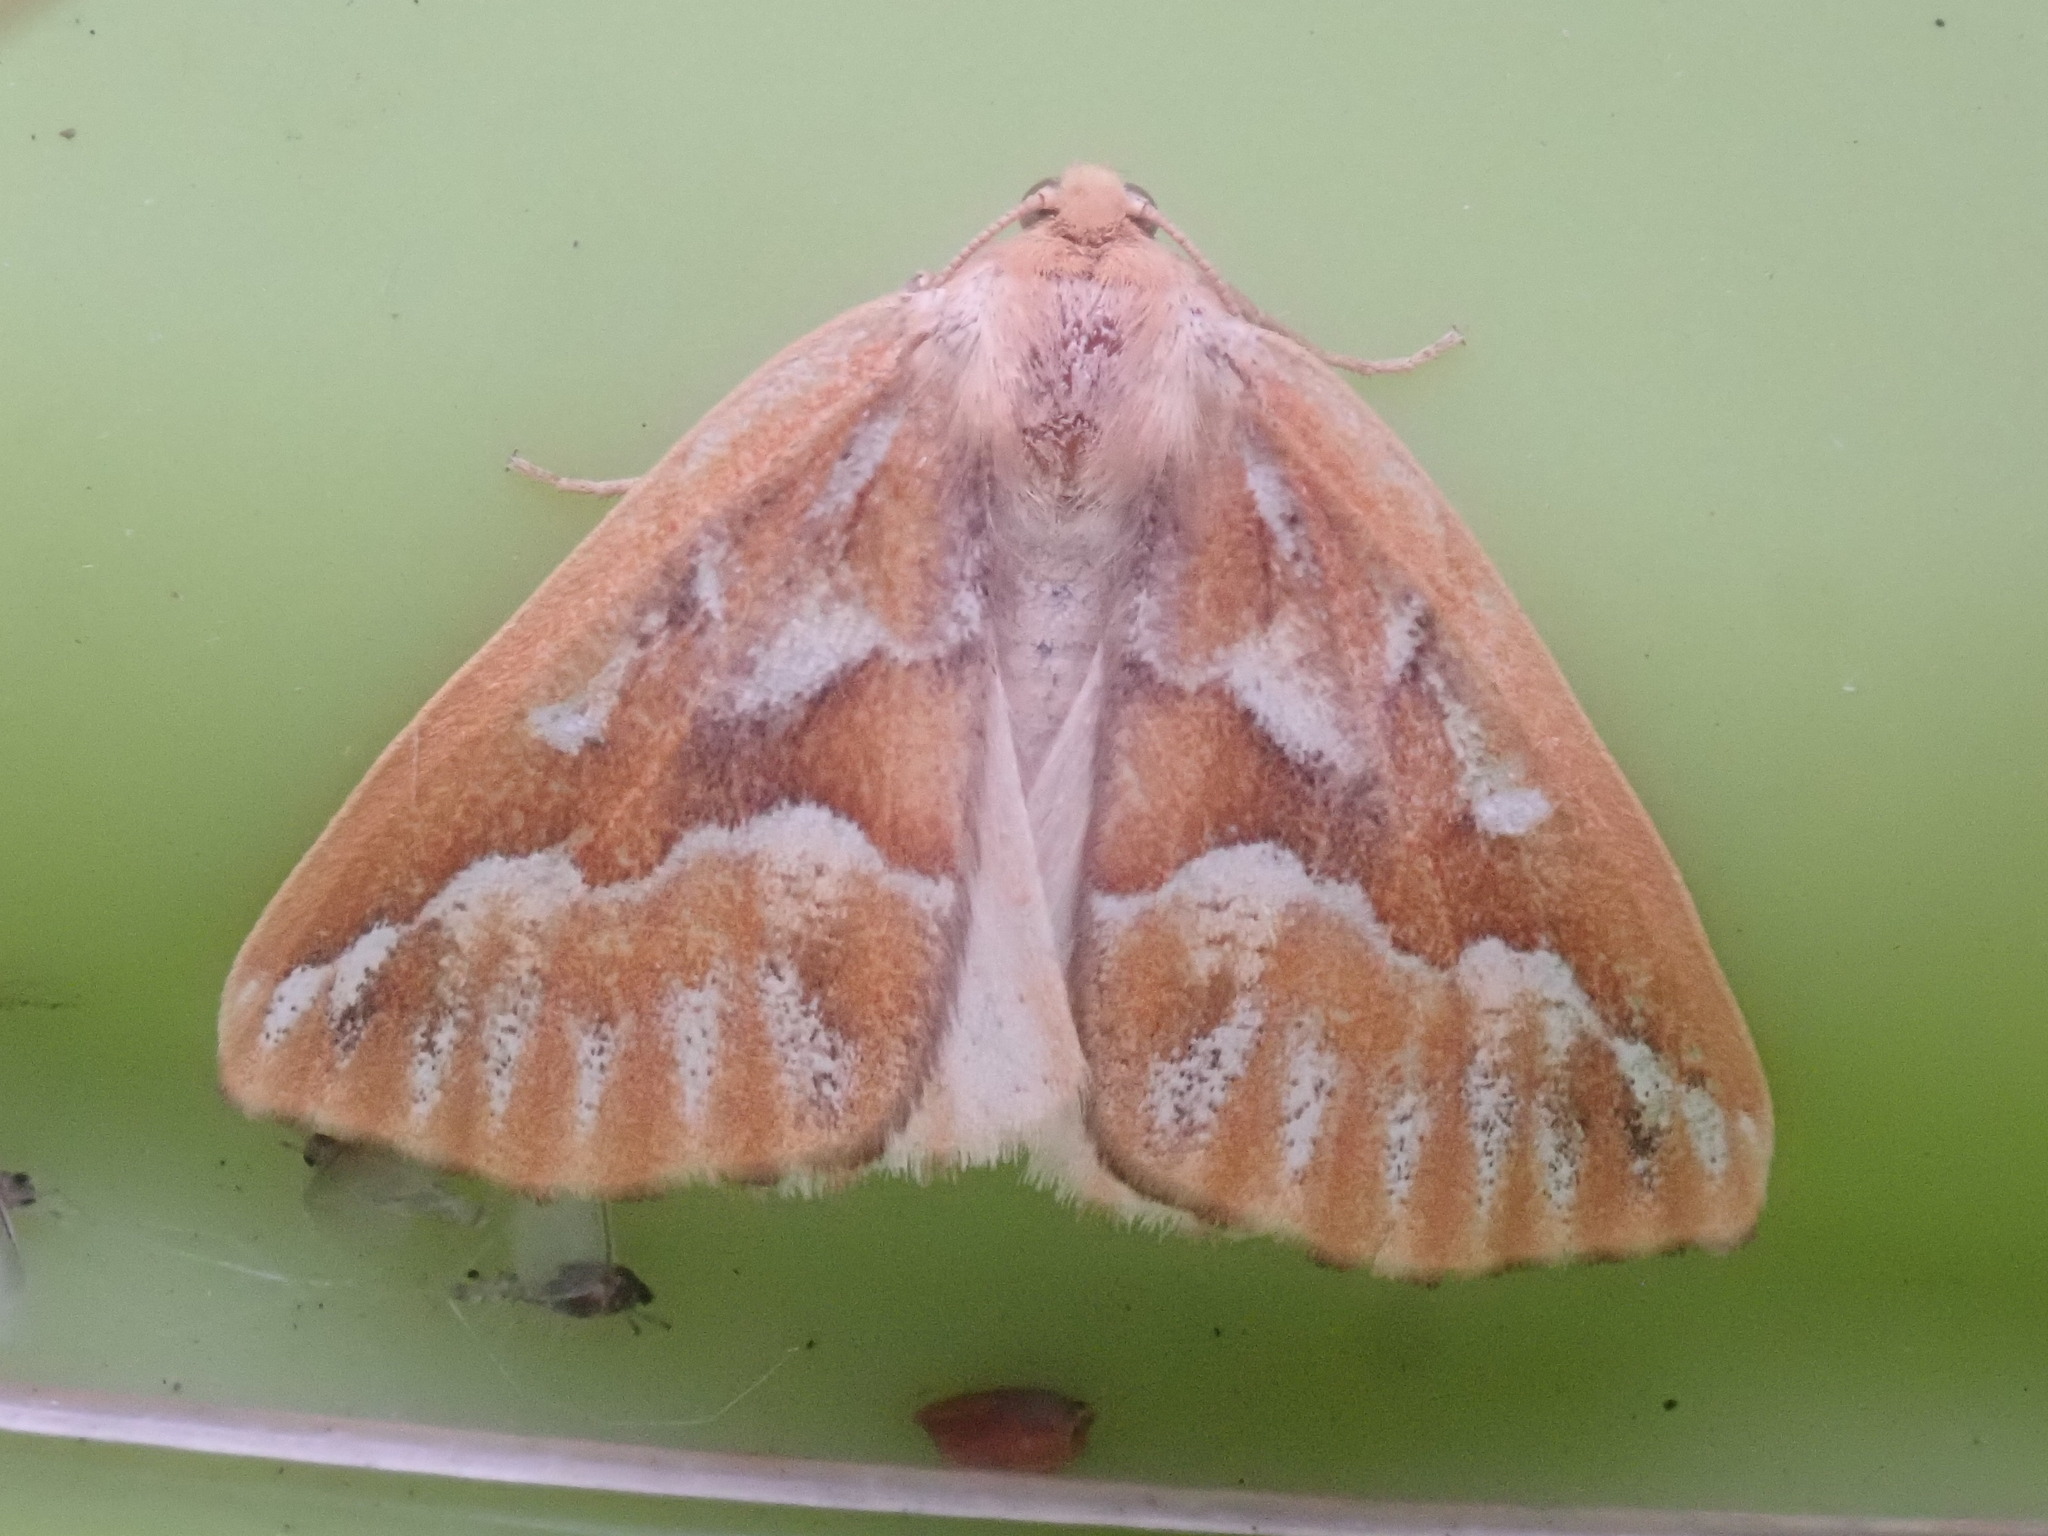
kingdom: Animalia
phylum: Arthropoda
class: Insecta
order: Lepidoptera
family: Geometridae
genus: Caripeta
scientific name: Caripeta piniata
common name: Northern pine looper moth
